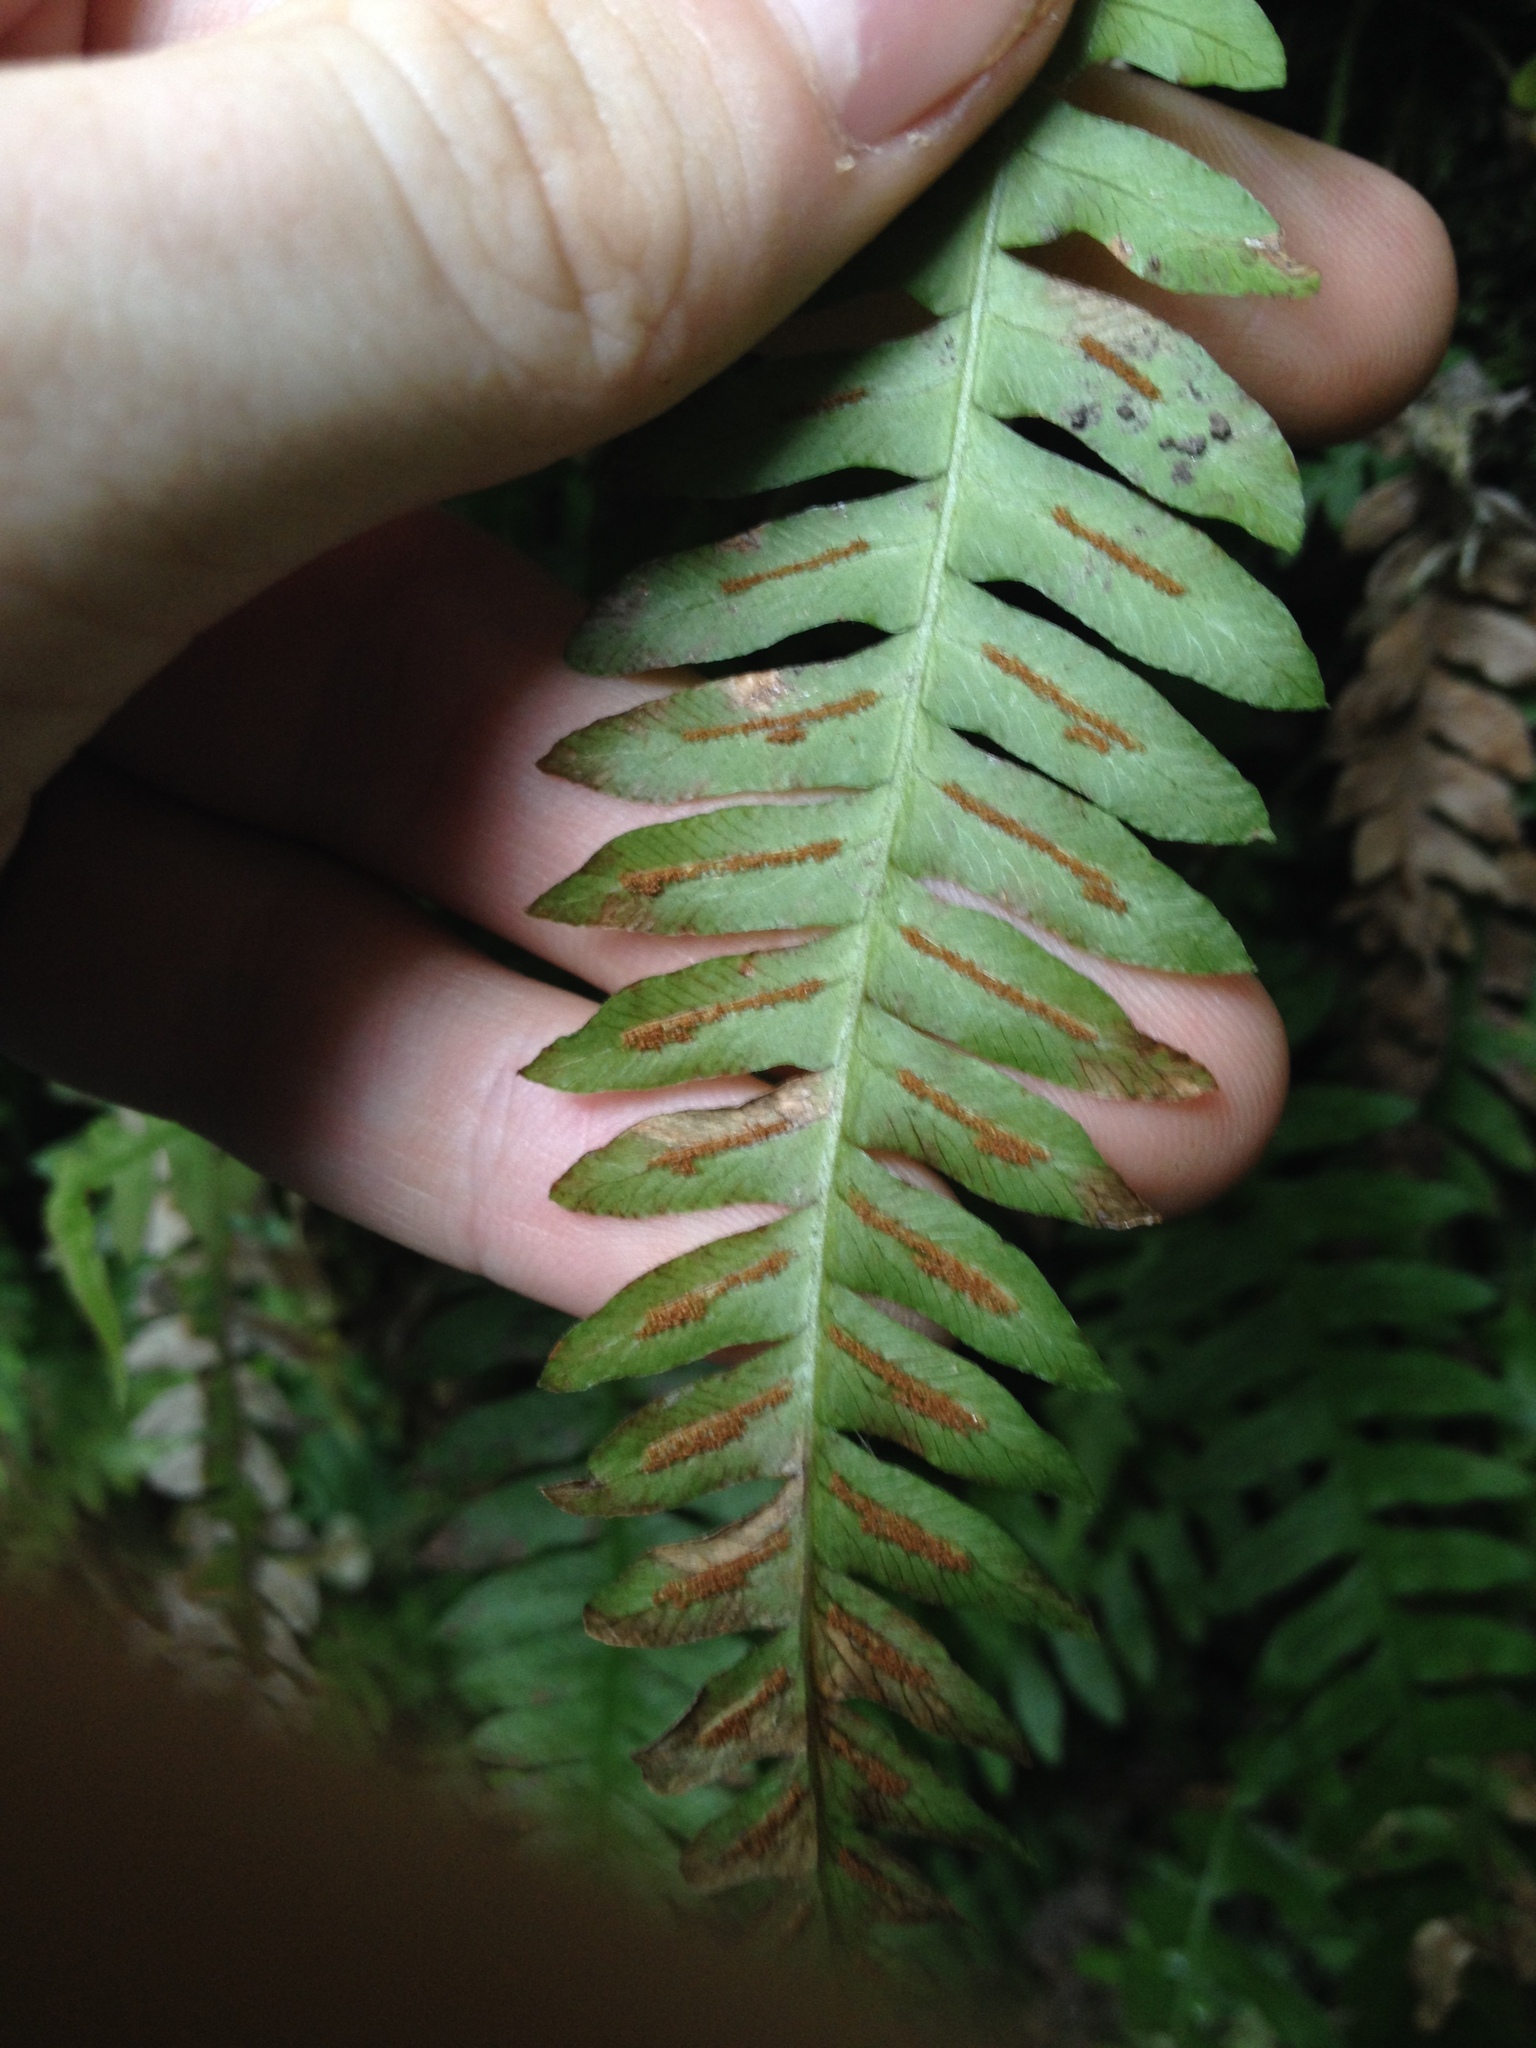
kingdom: Plantae
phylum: Tracheophyta
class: Polypodiopsida
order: Polypodiales
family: Blechnaceae
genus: Blechnum
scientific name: Blechnum polypodioides
